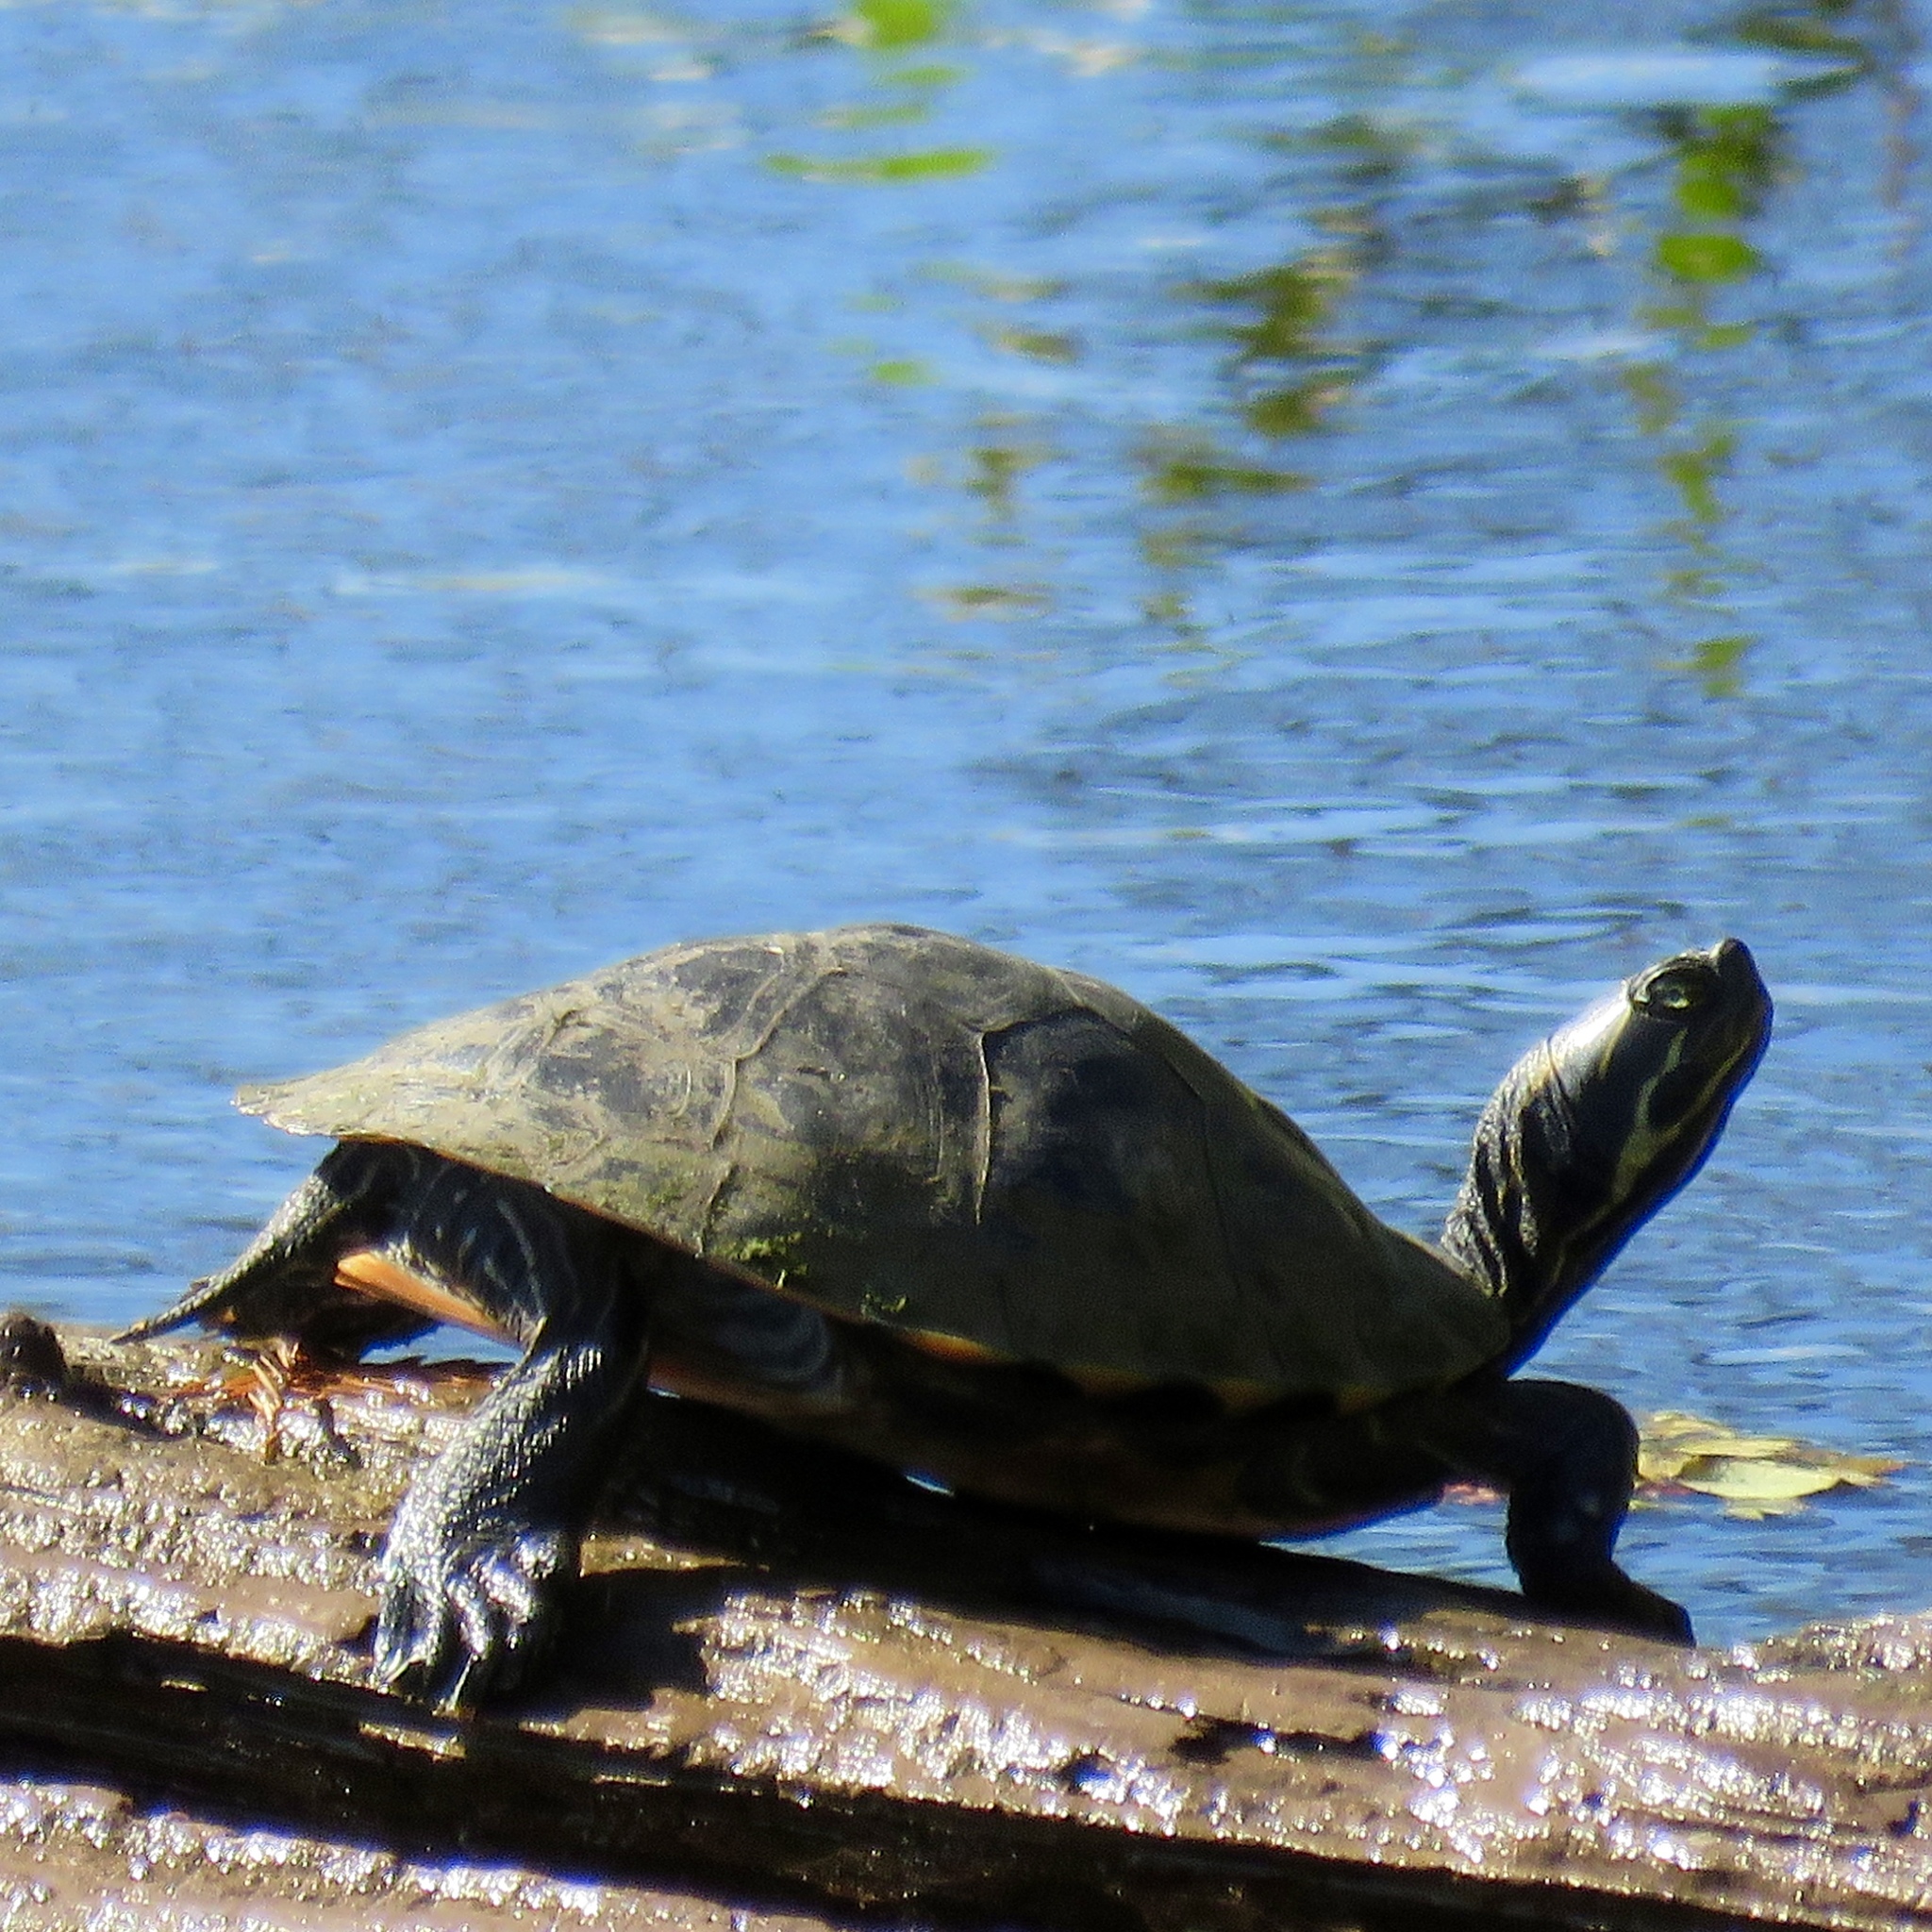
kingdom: Animalia
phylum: Chordata
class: Testudines
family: Emydidae
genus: Pseudemys
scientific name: Pseudemys concinna
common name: Eastern river cooter
